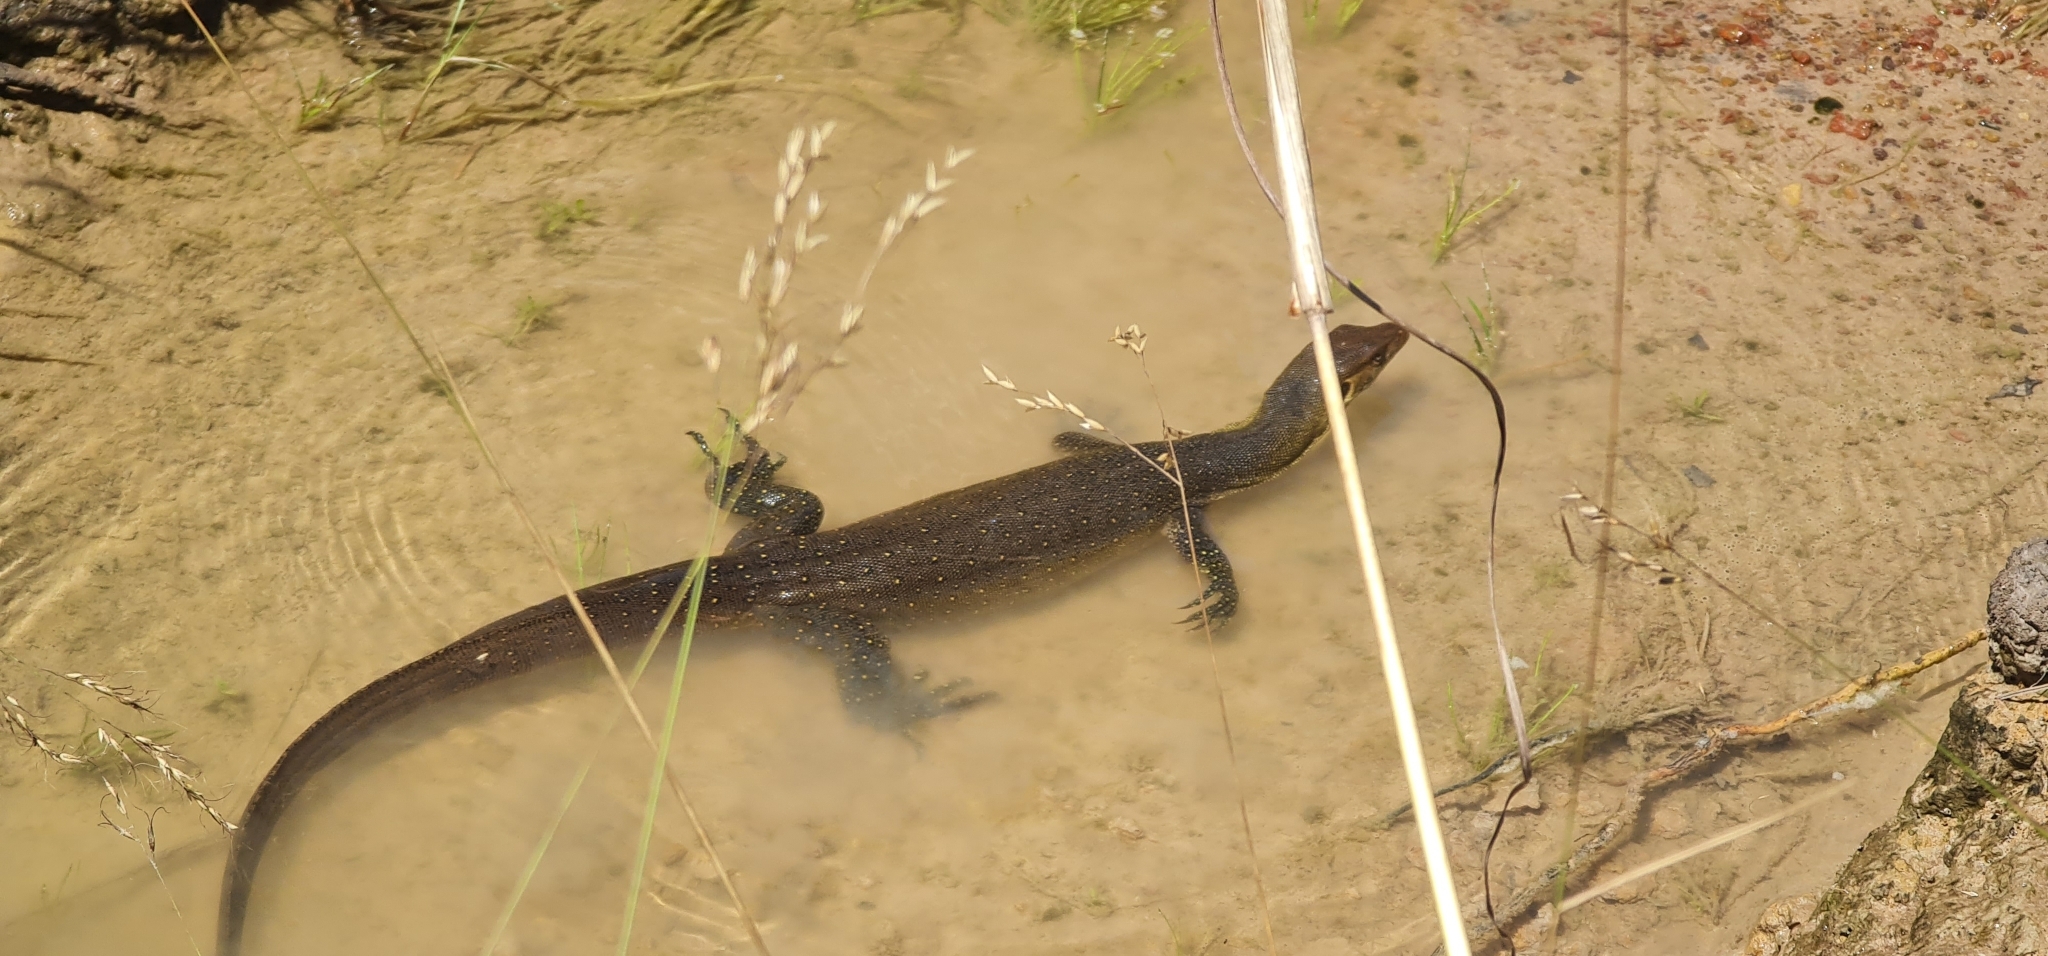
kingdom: Animalia
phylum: Chordata
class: Squamata
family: Varanidae
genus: Varanus
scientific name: Varanus mertensi
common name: Mertens's water monitor
